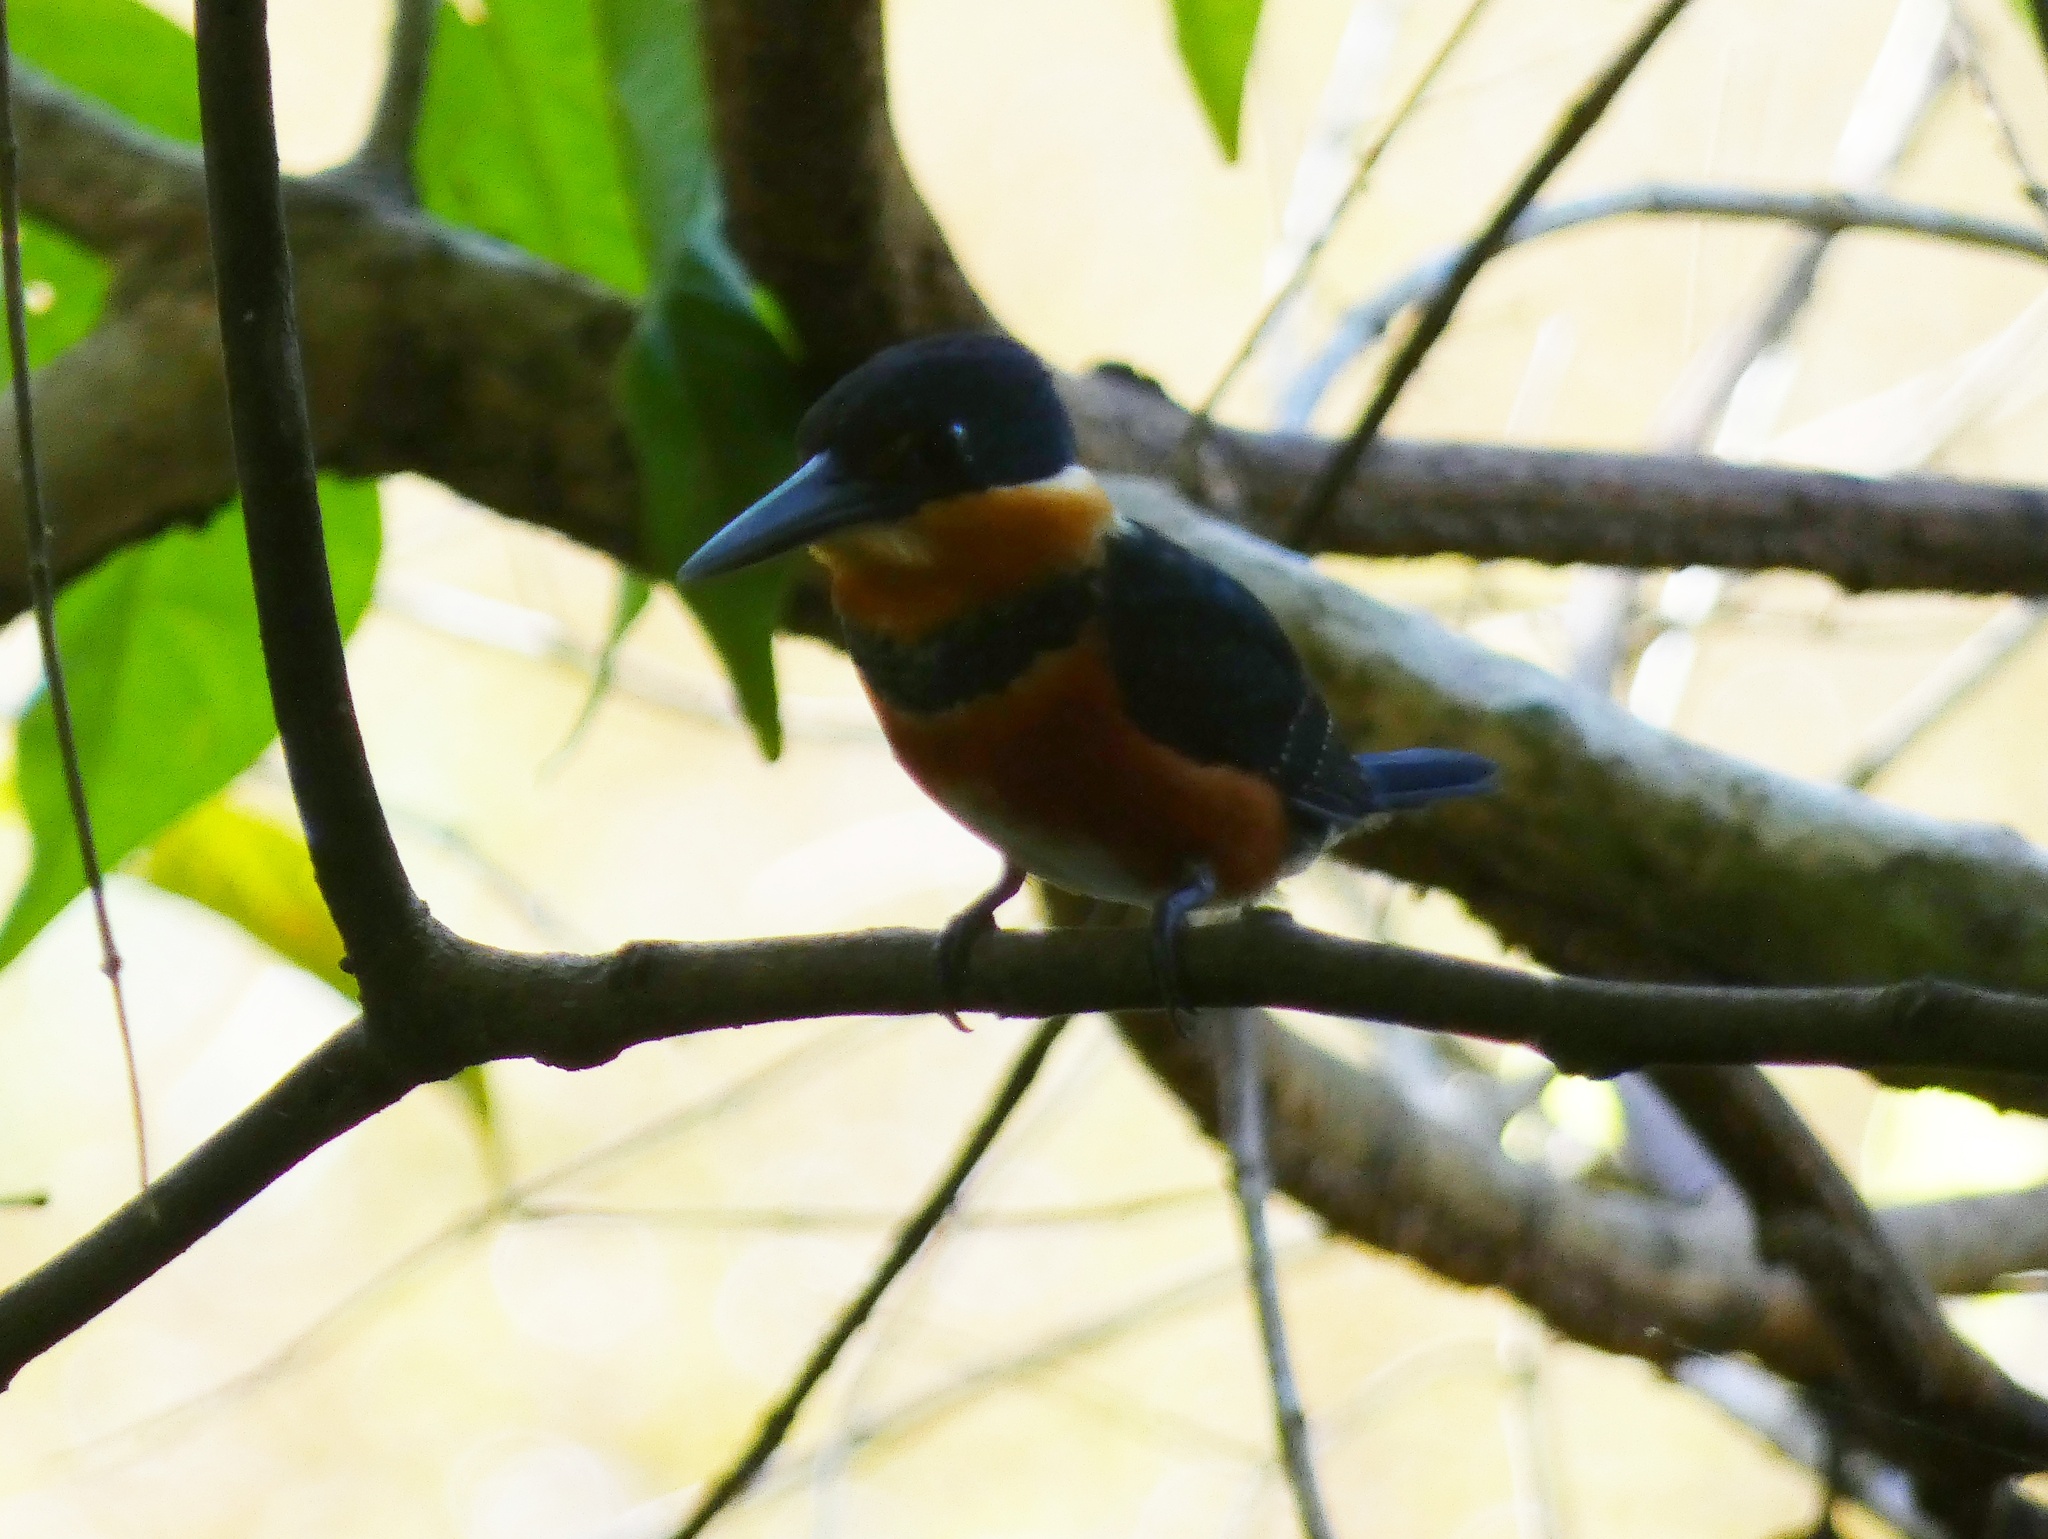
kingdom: Animalia
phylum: Chordata
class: Aves
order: Coraciiformes
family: Alcedinidae
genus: Chloroceryle
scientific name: Chloroceryle aenea
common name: American pygmy kingfisher
